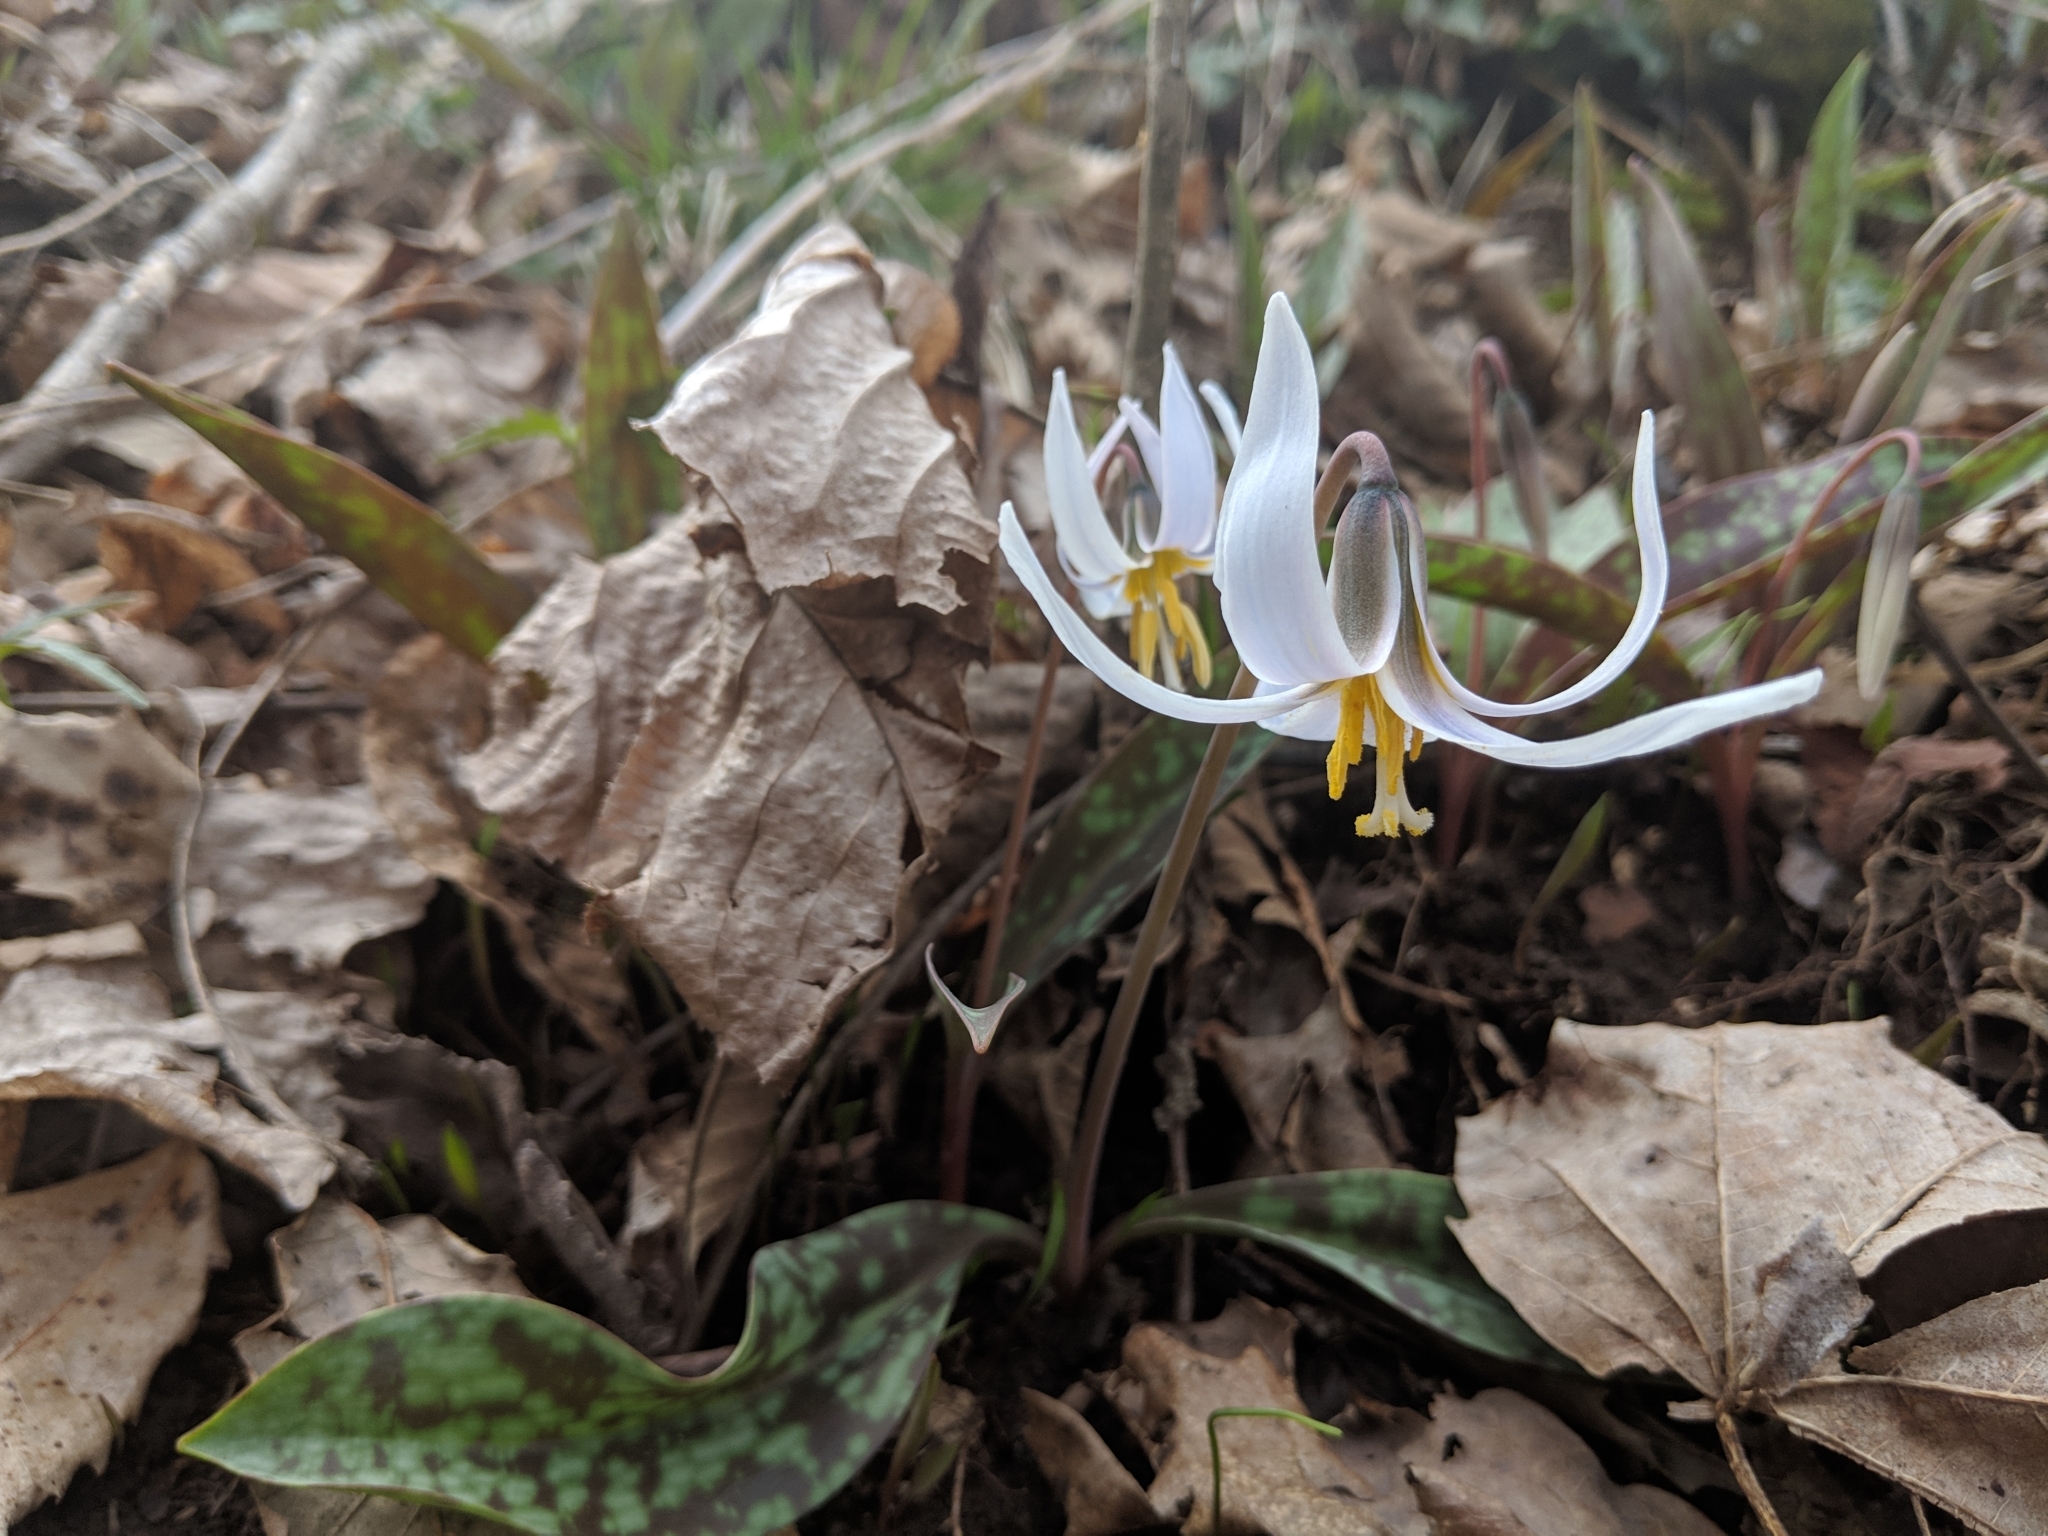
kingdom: Plantae
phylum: Tracheophyta
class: Liliopsida
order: Liliales
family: Liliaceae
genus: Erythronium
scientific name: Erythronium albidum
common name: White trout-lily
